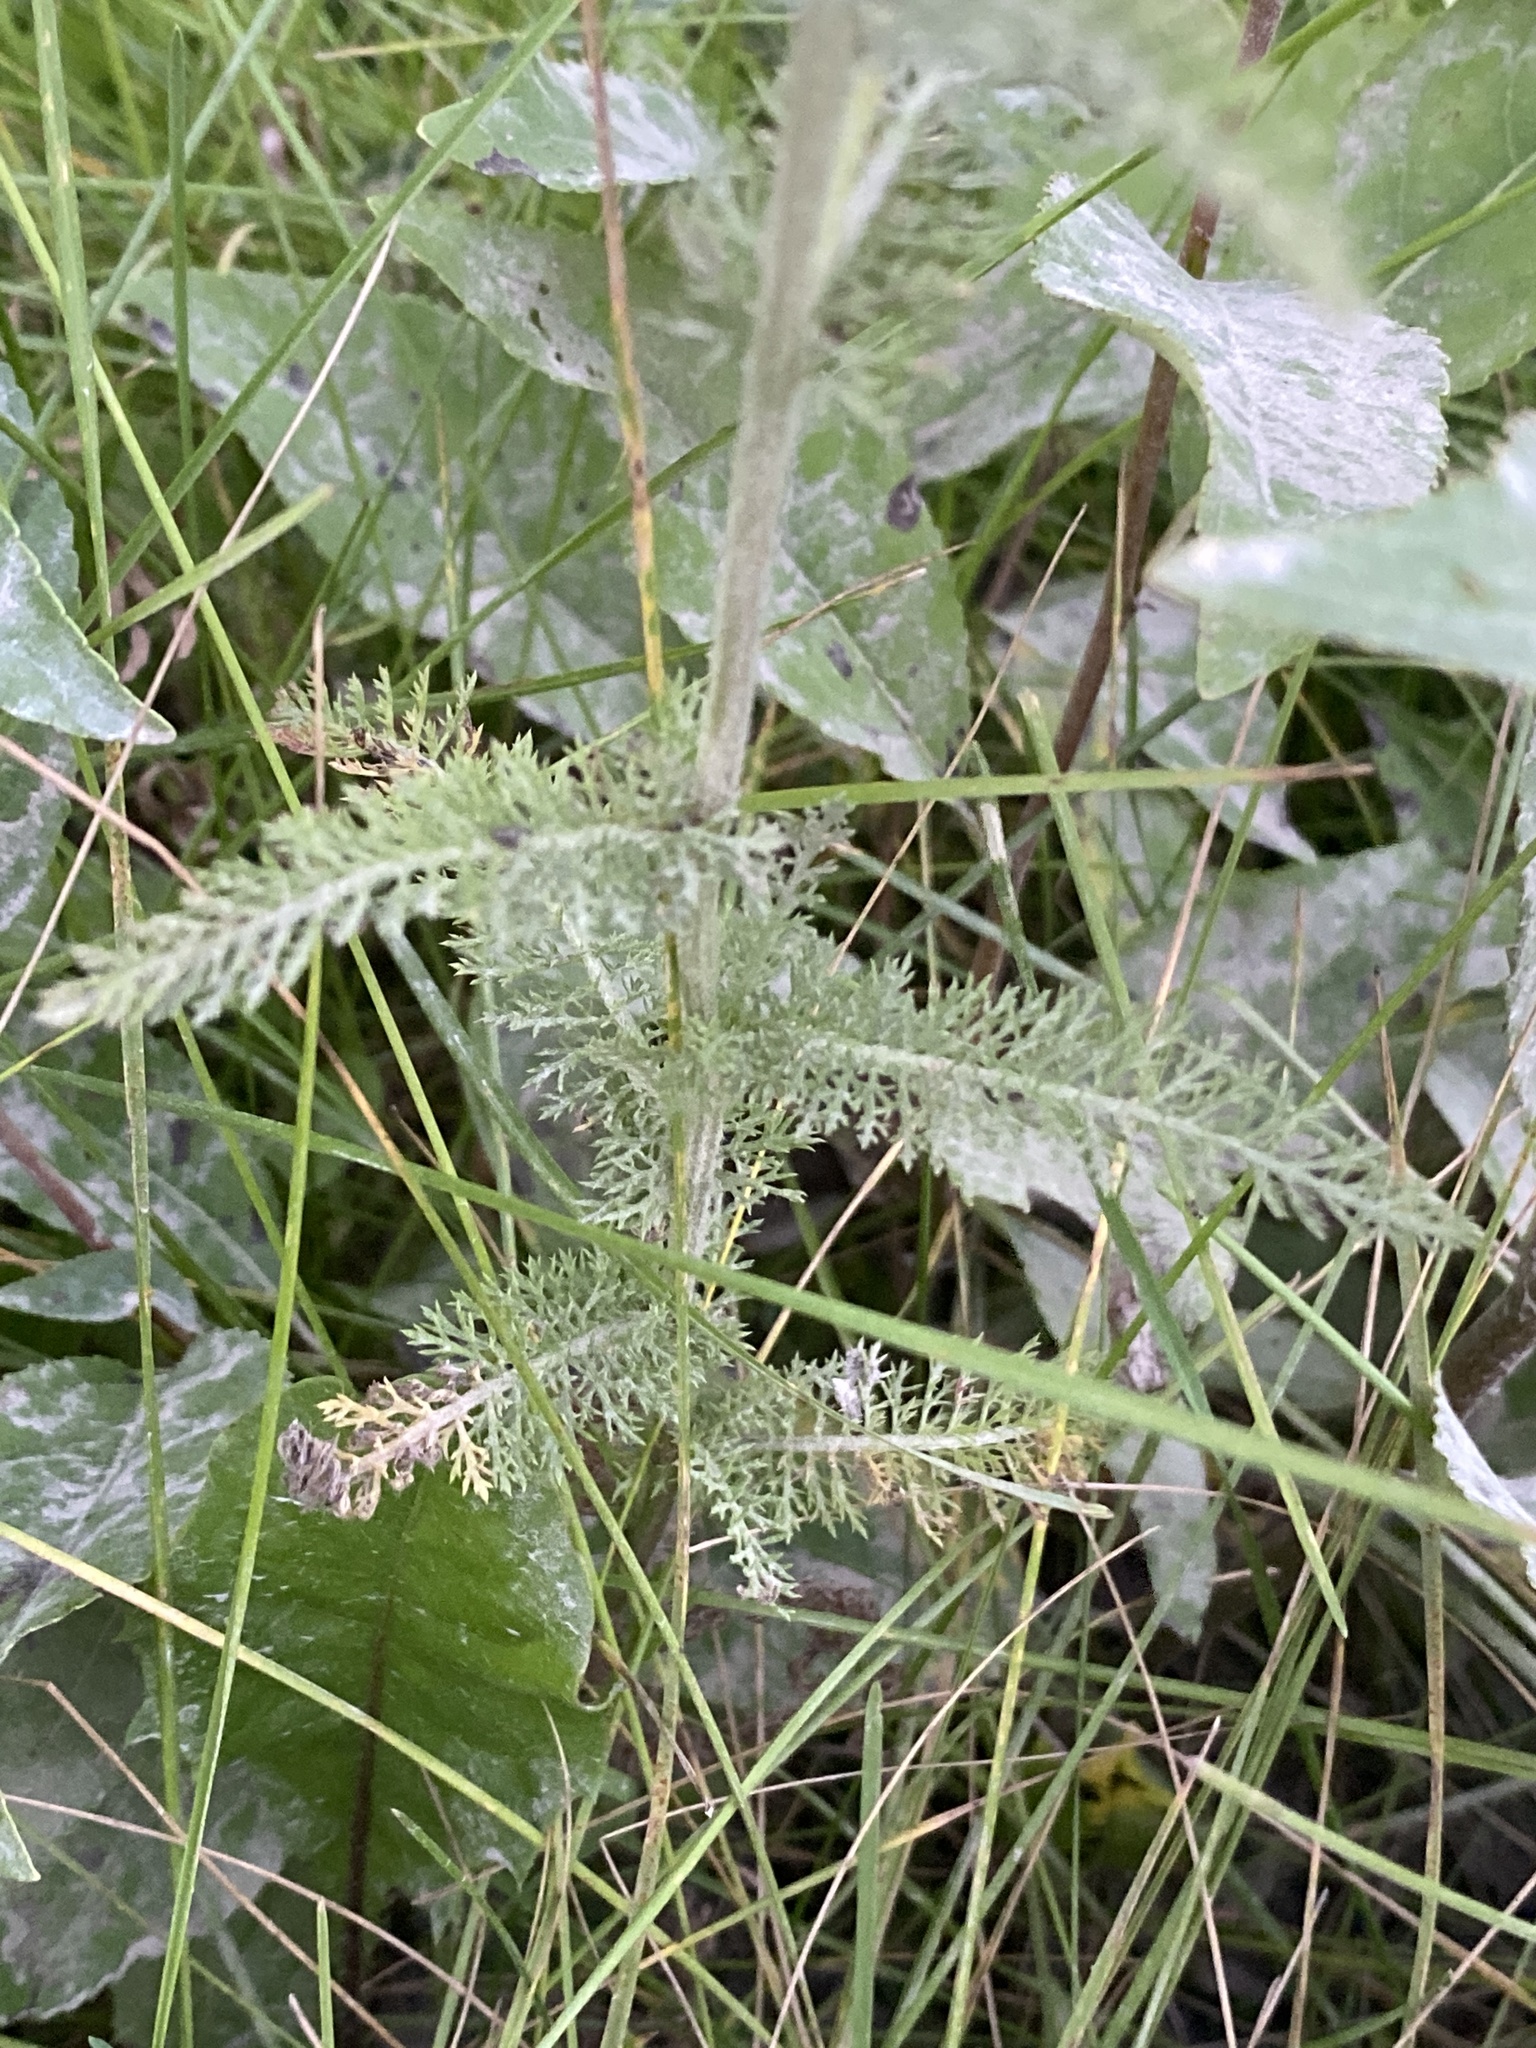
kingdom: Plantae
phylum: Tracheophyta
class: Magnoliopsida
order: Asterales
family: Asteraceae
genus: Achillea
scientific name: Achillea millefolium
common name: Yarrow
